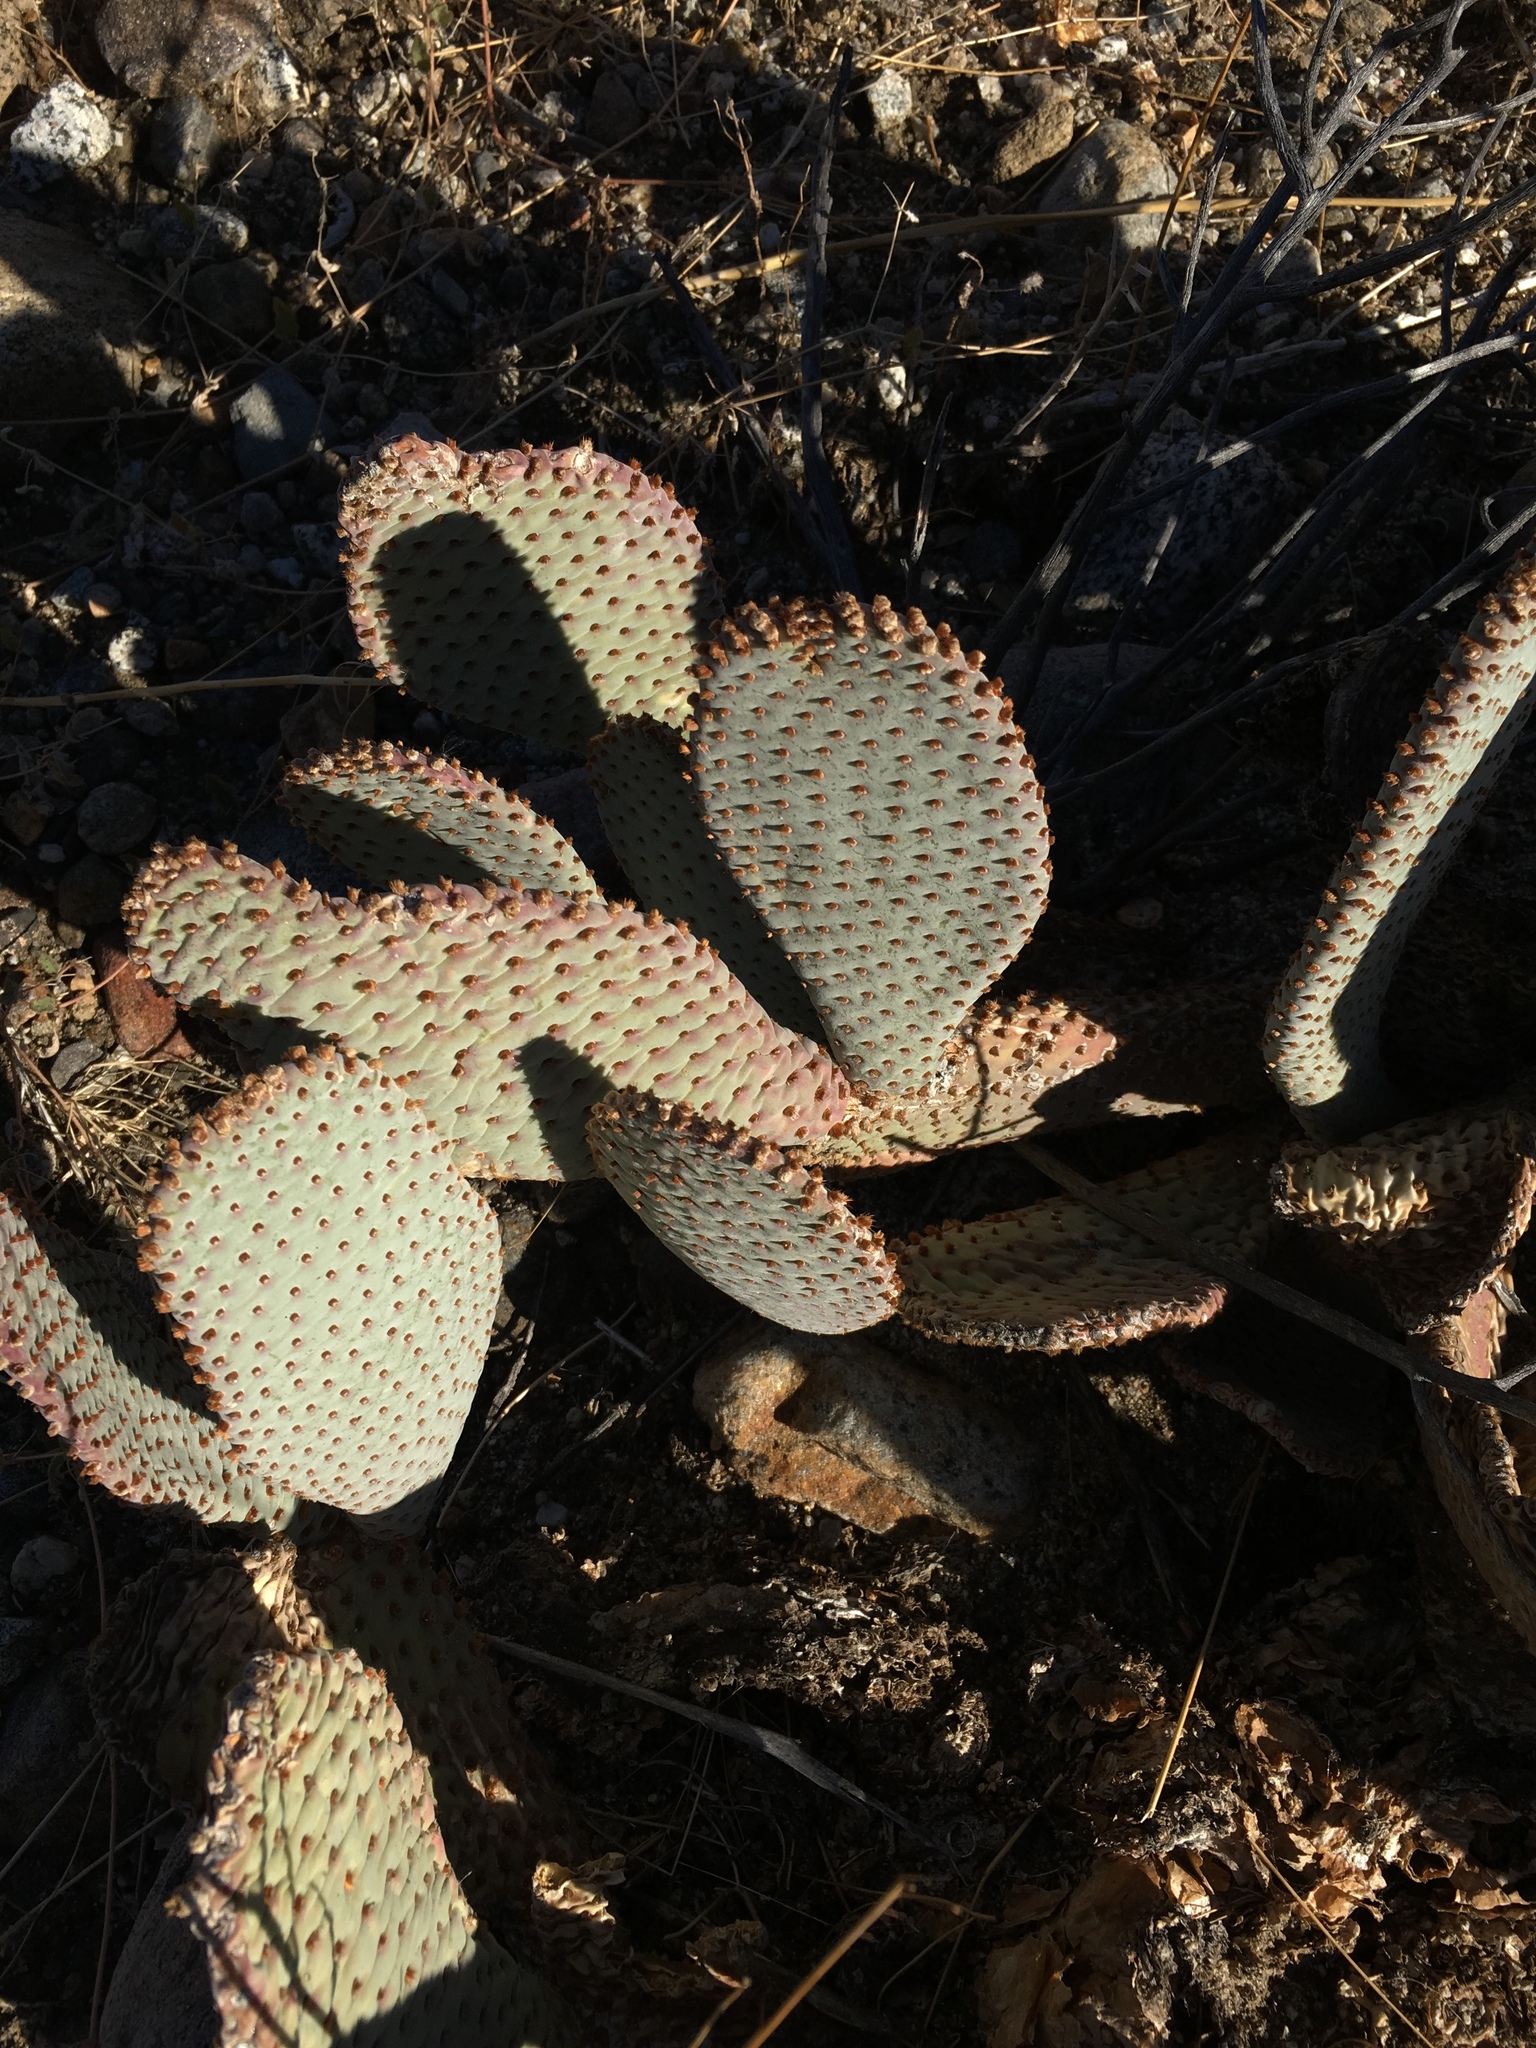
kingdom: Plantae
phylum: Tracheophyta
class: Magnoliopsida
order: Caryophyllales
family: Cactaceae
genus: Opuntia
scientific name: Opuntia basilaris
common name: Beavertail prickly-pear
